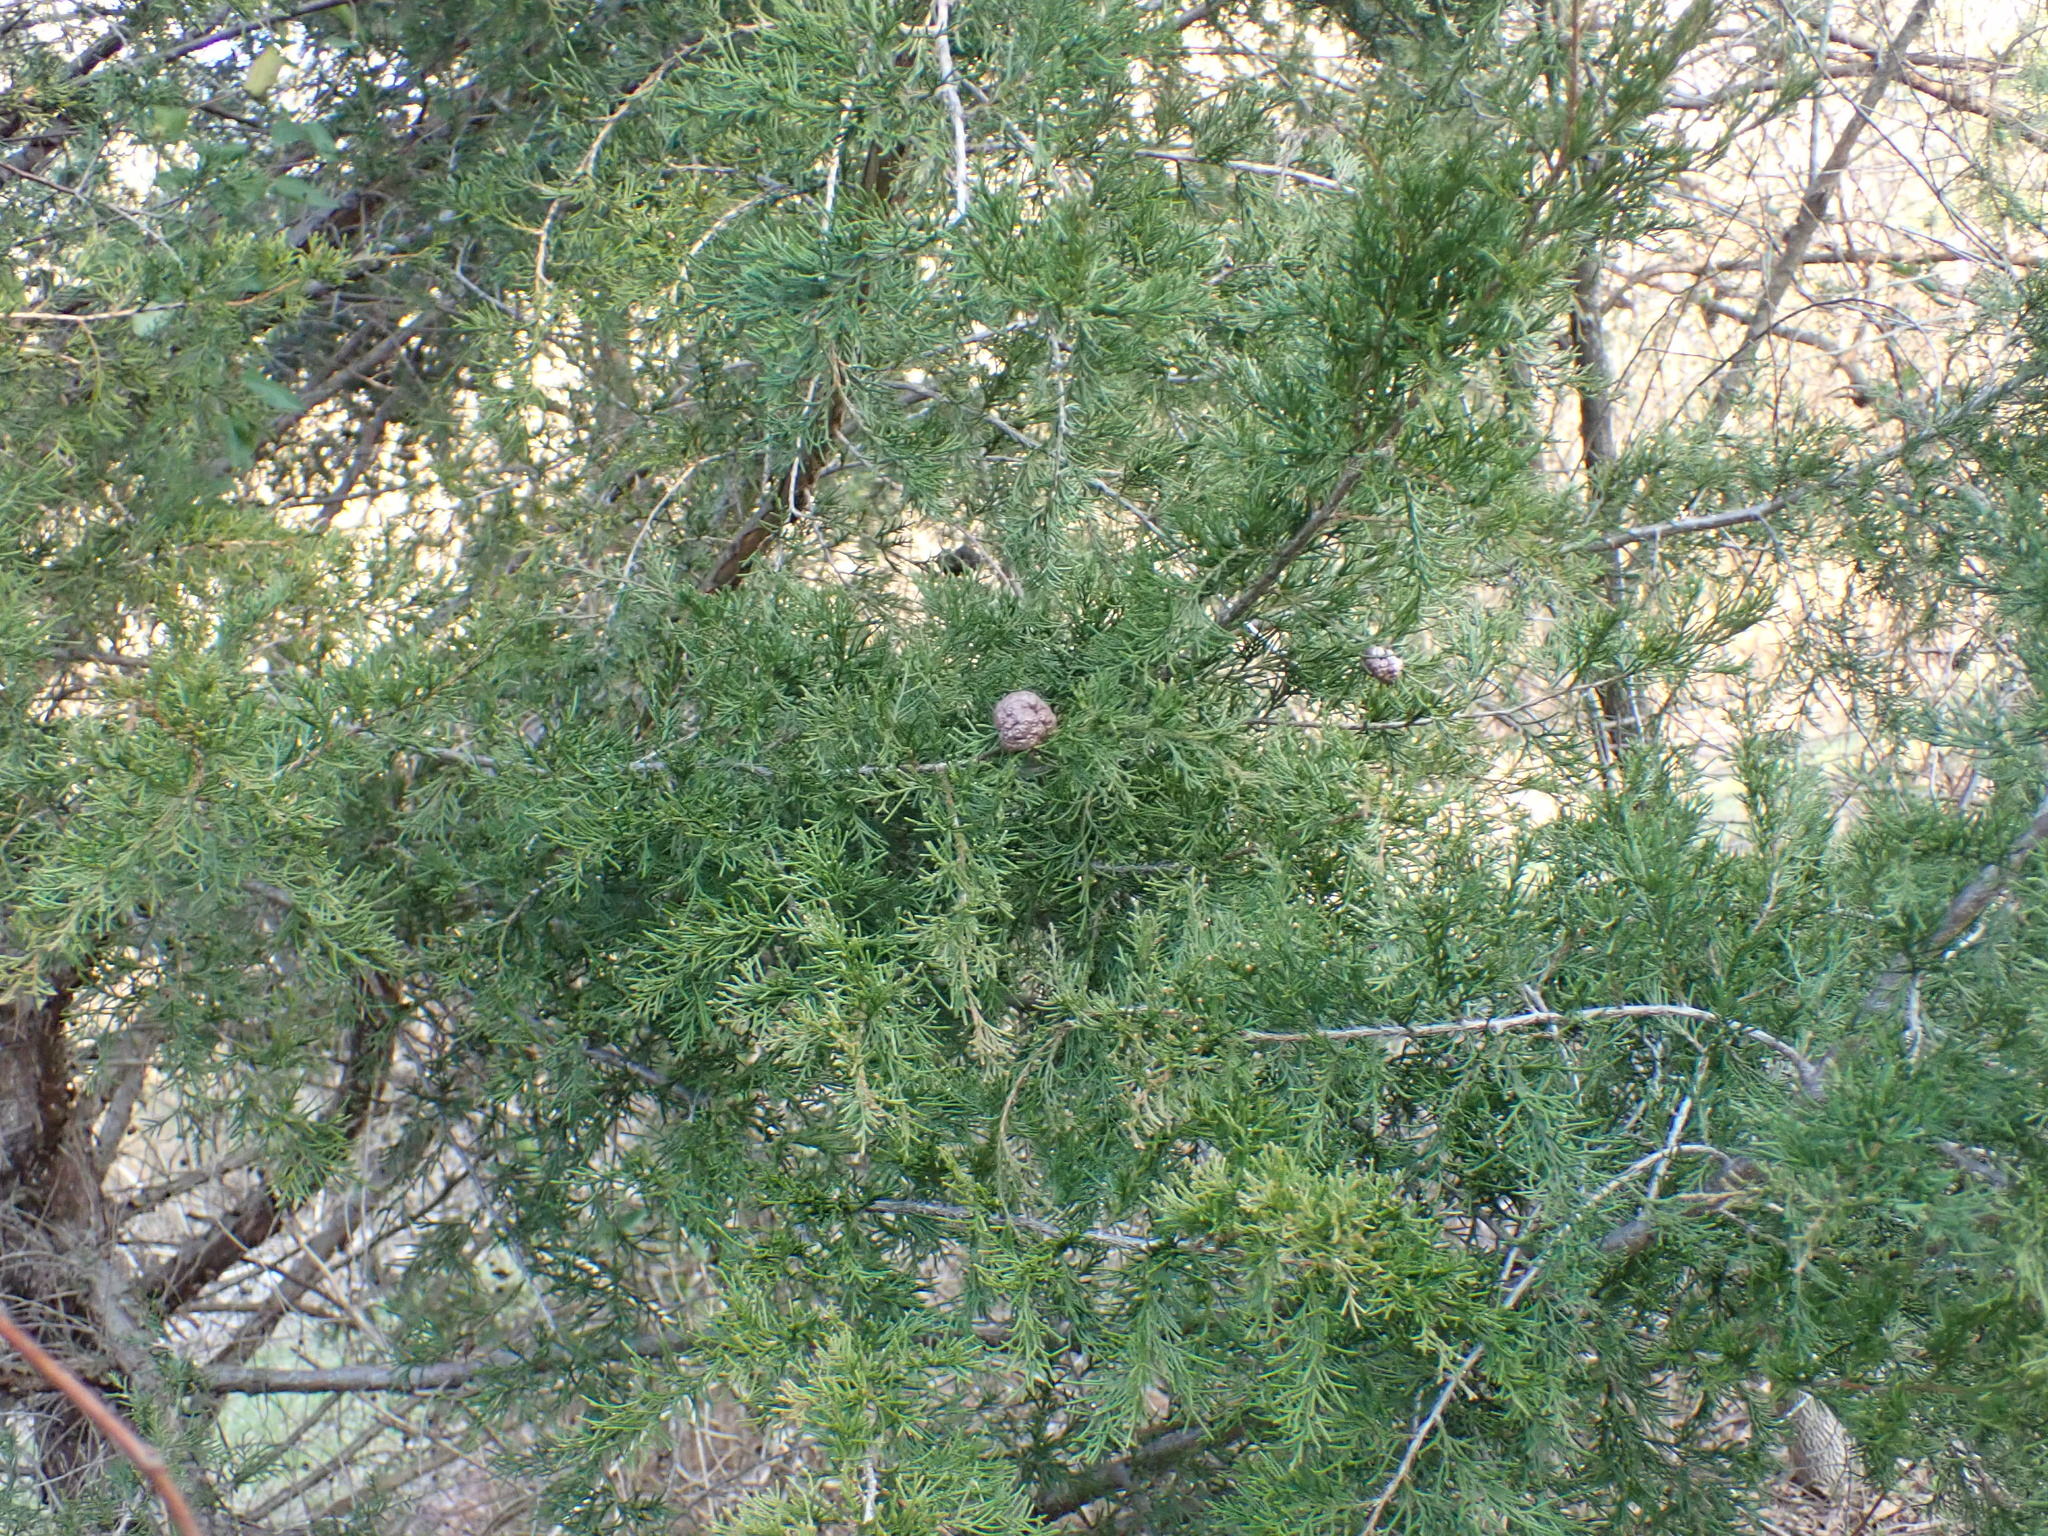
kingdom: Plantae
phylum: Tracheophyta
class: Pinopsida
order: Pinales
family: Cupressaceae
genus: Juniperus
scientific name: Juniperus virginiana
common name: Red juniper
